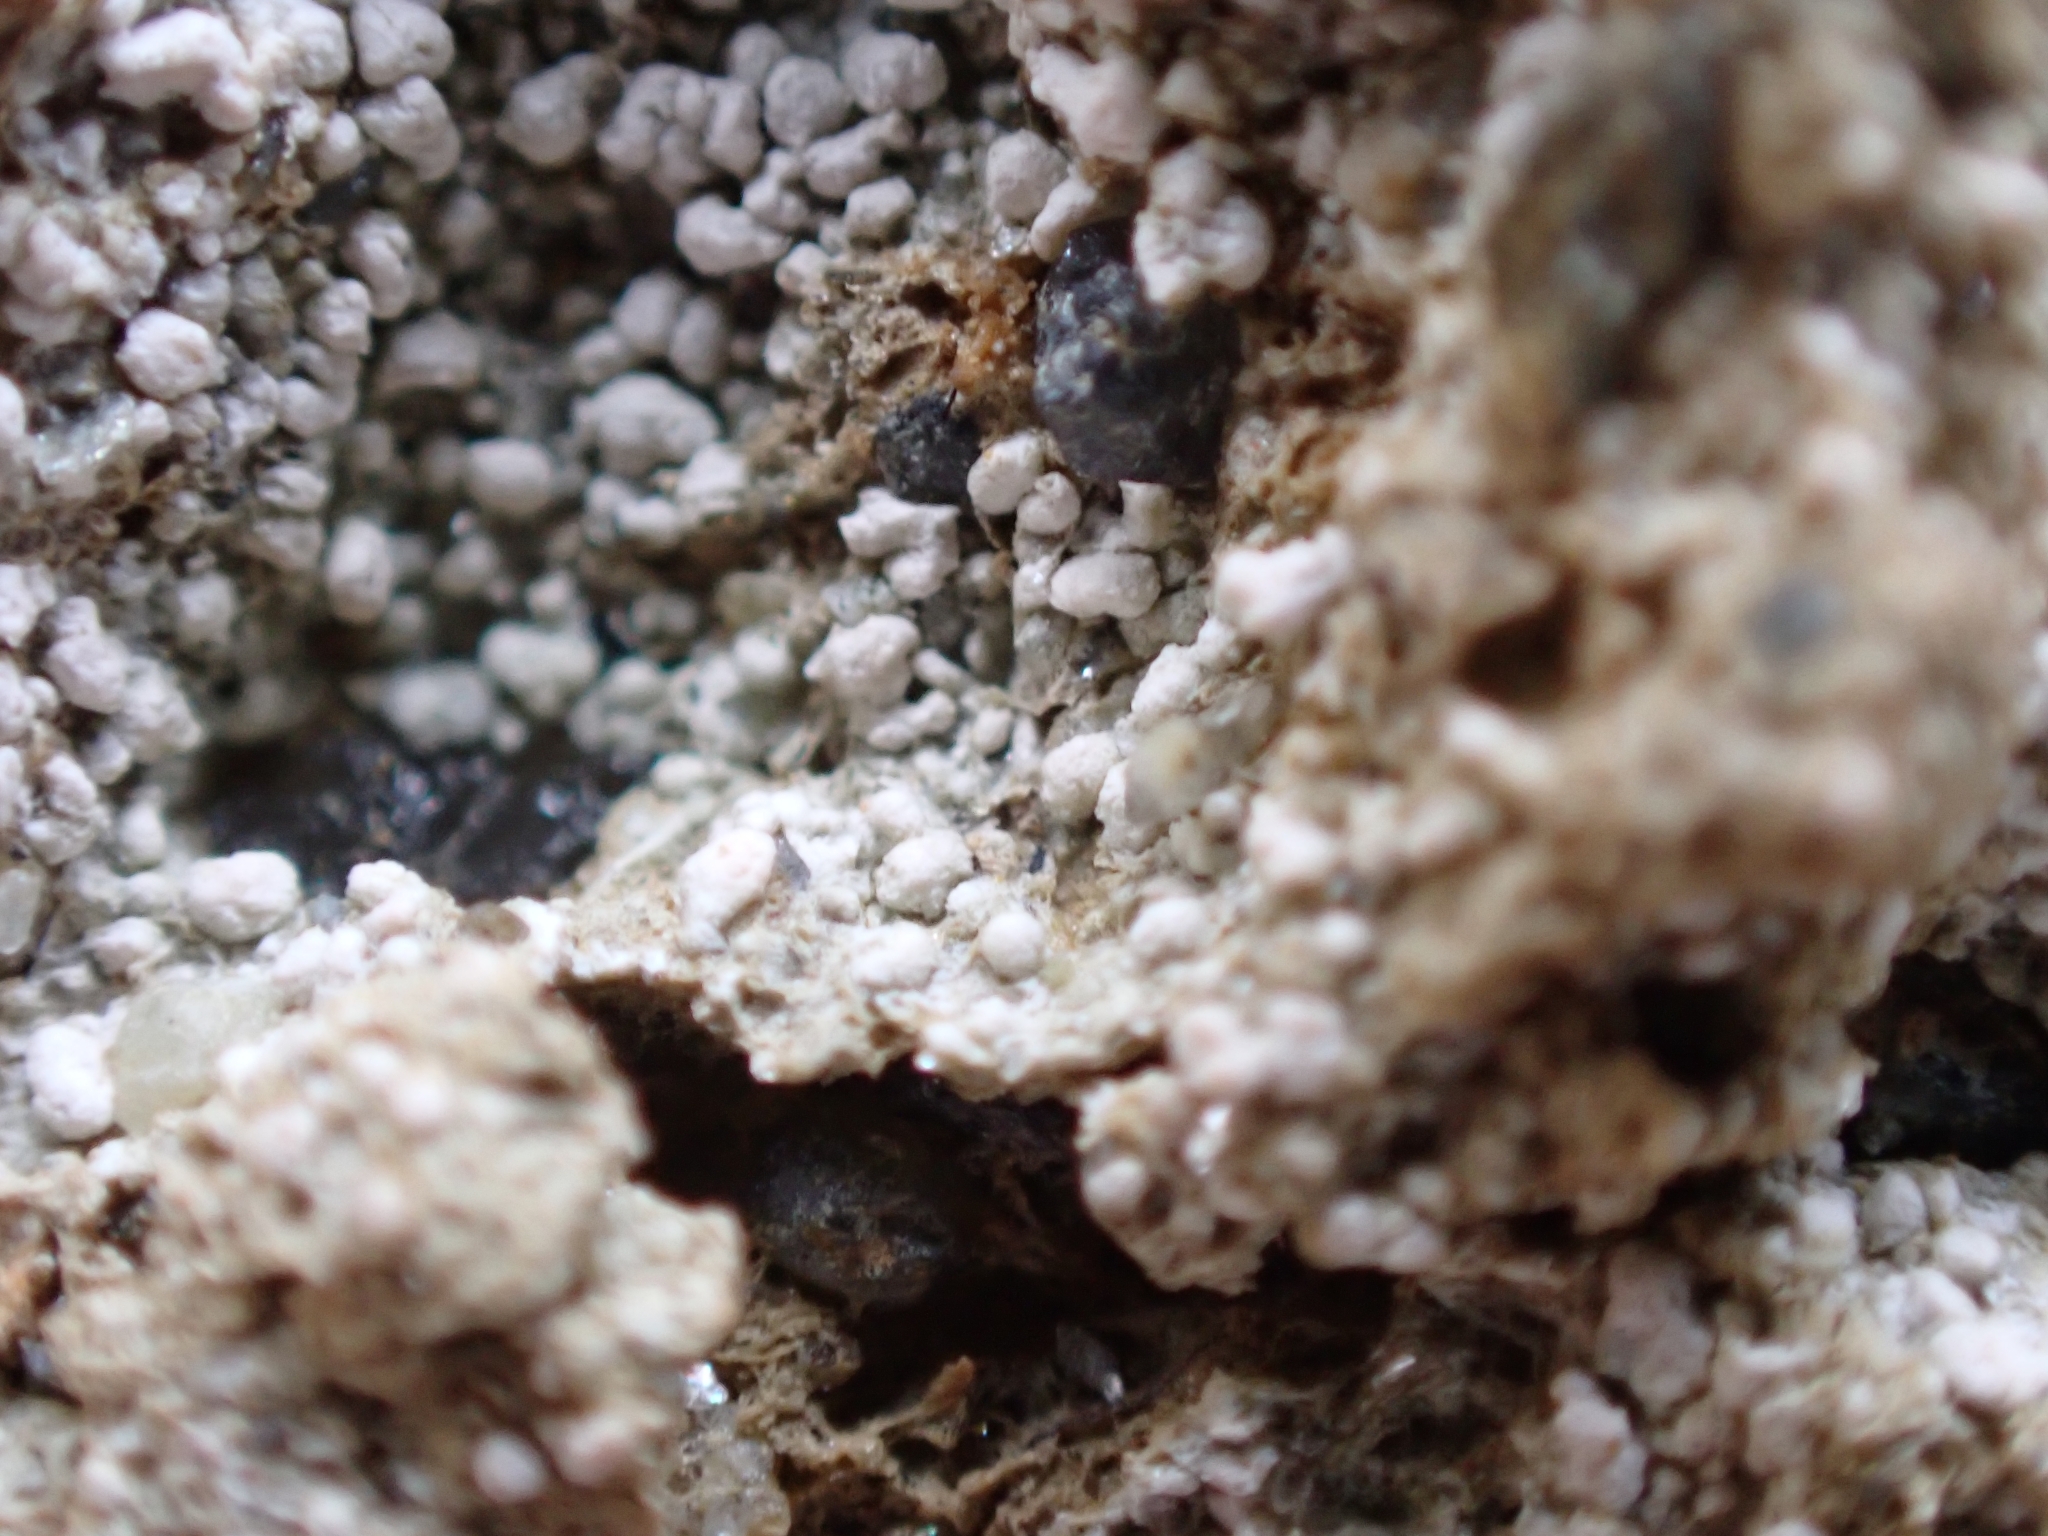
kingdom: Fungi
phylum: Ascomycota
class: Lecanoromycetes
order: Pertusariales
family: Icmadophilaceae
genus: Dibaeis
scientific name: Dibaeis baeomyces
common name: Pink earth lichen
